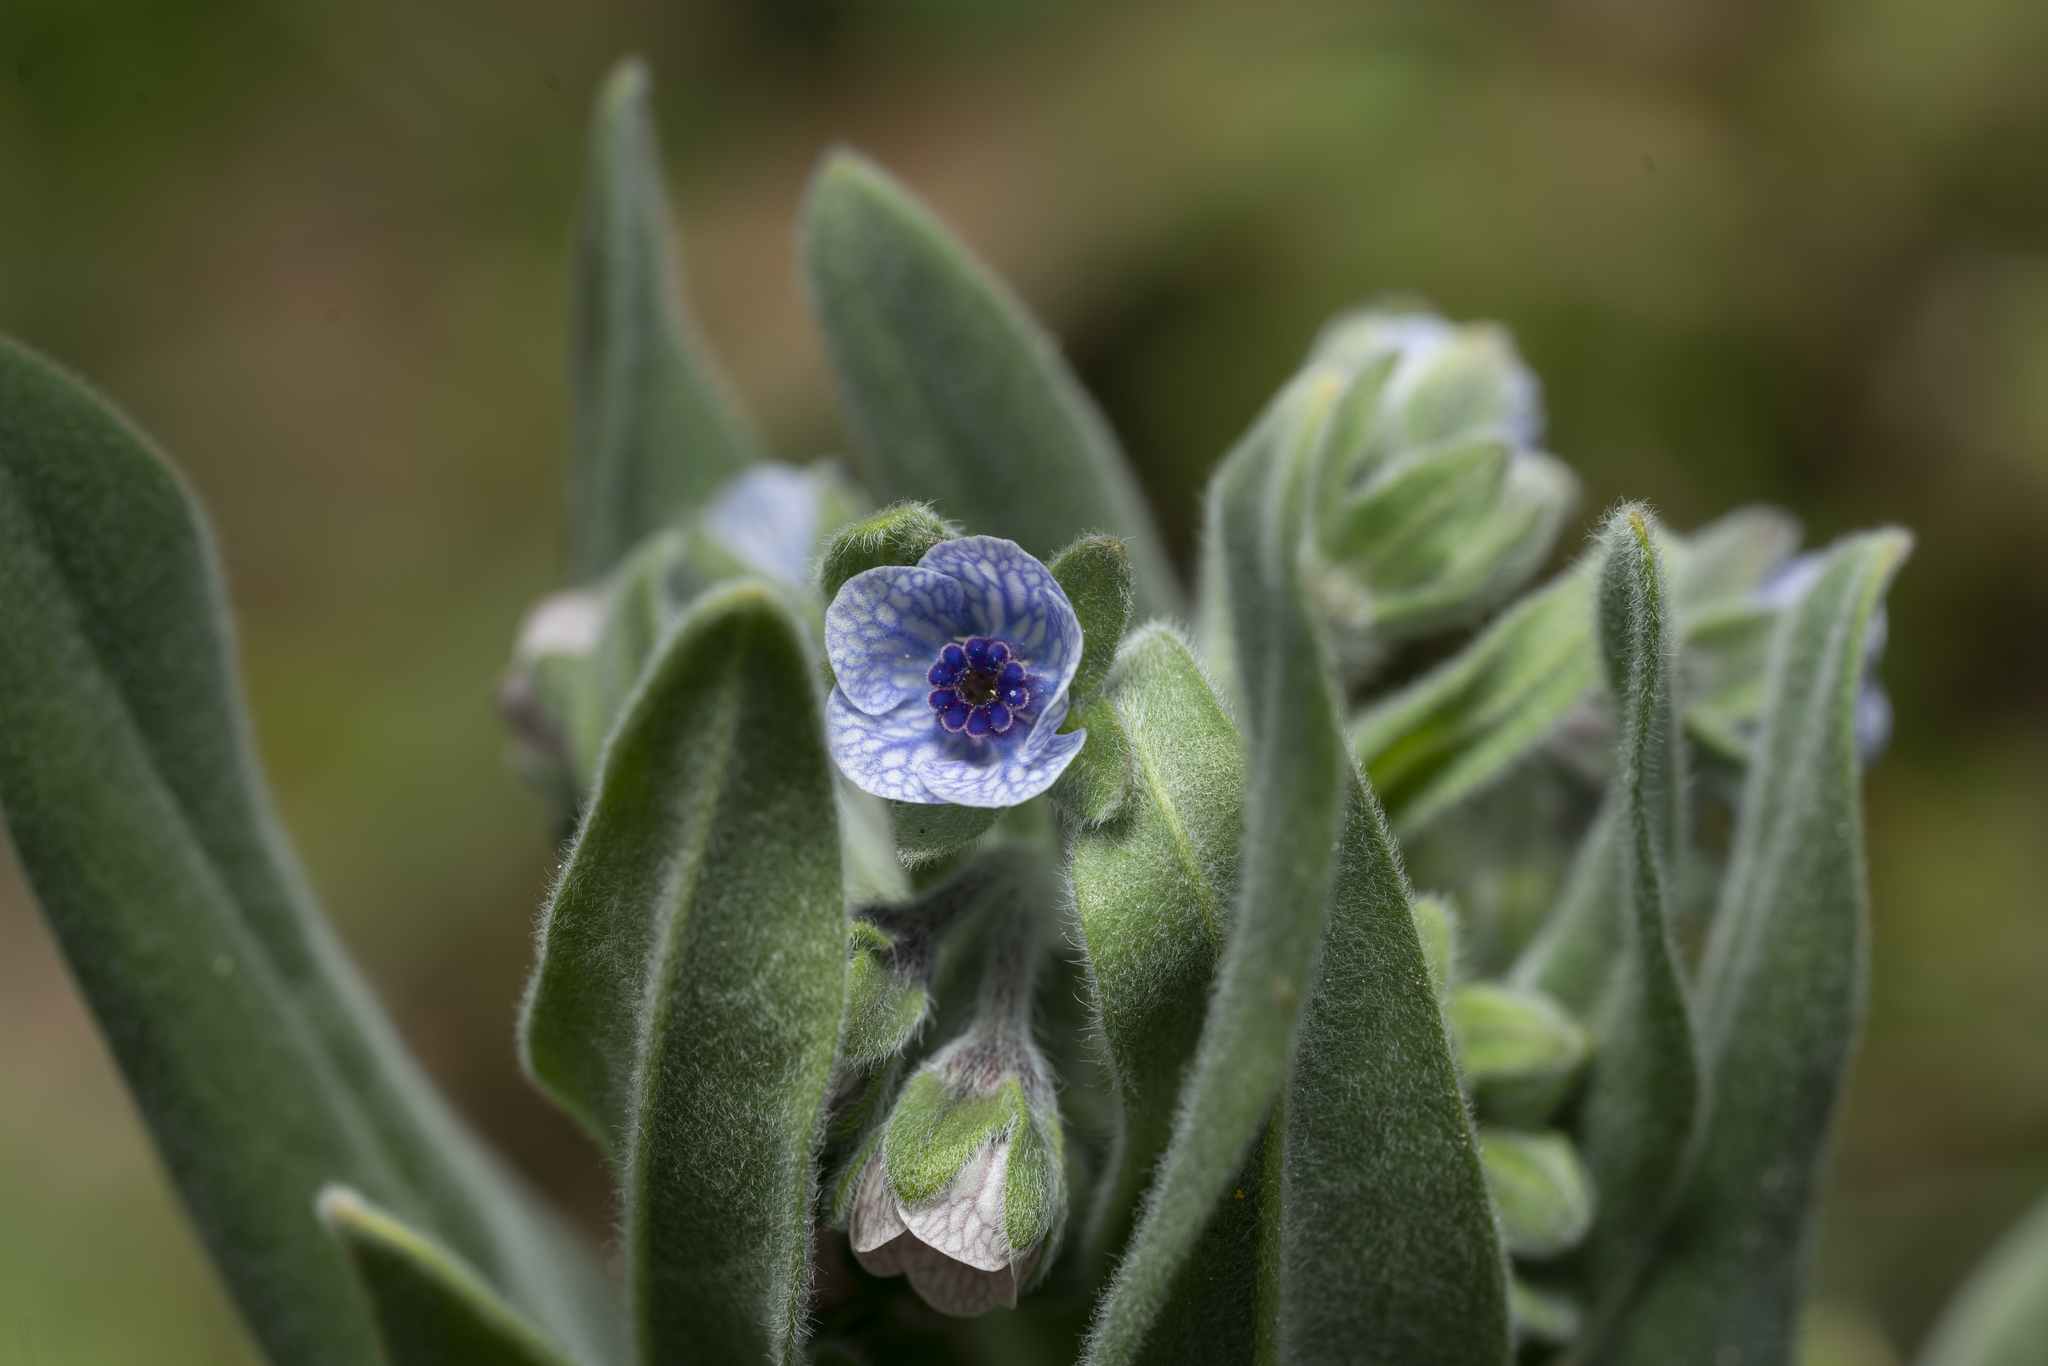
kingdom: Plantae
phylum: Tracheophyta
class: Magnoliopsida
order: Boraginales
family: Boraginaceae
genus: Cynoglossum
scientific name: Cynoglossum creticum
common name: Blue hound's tongue
